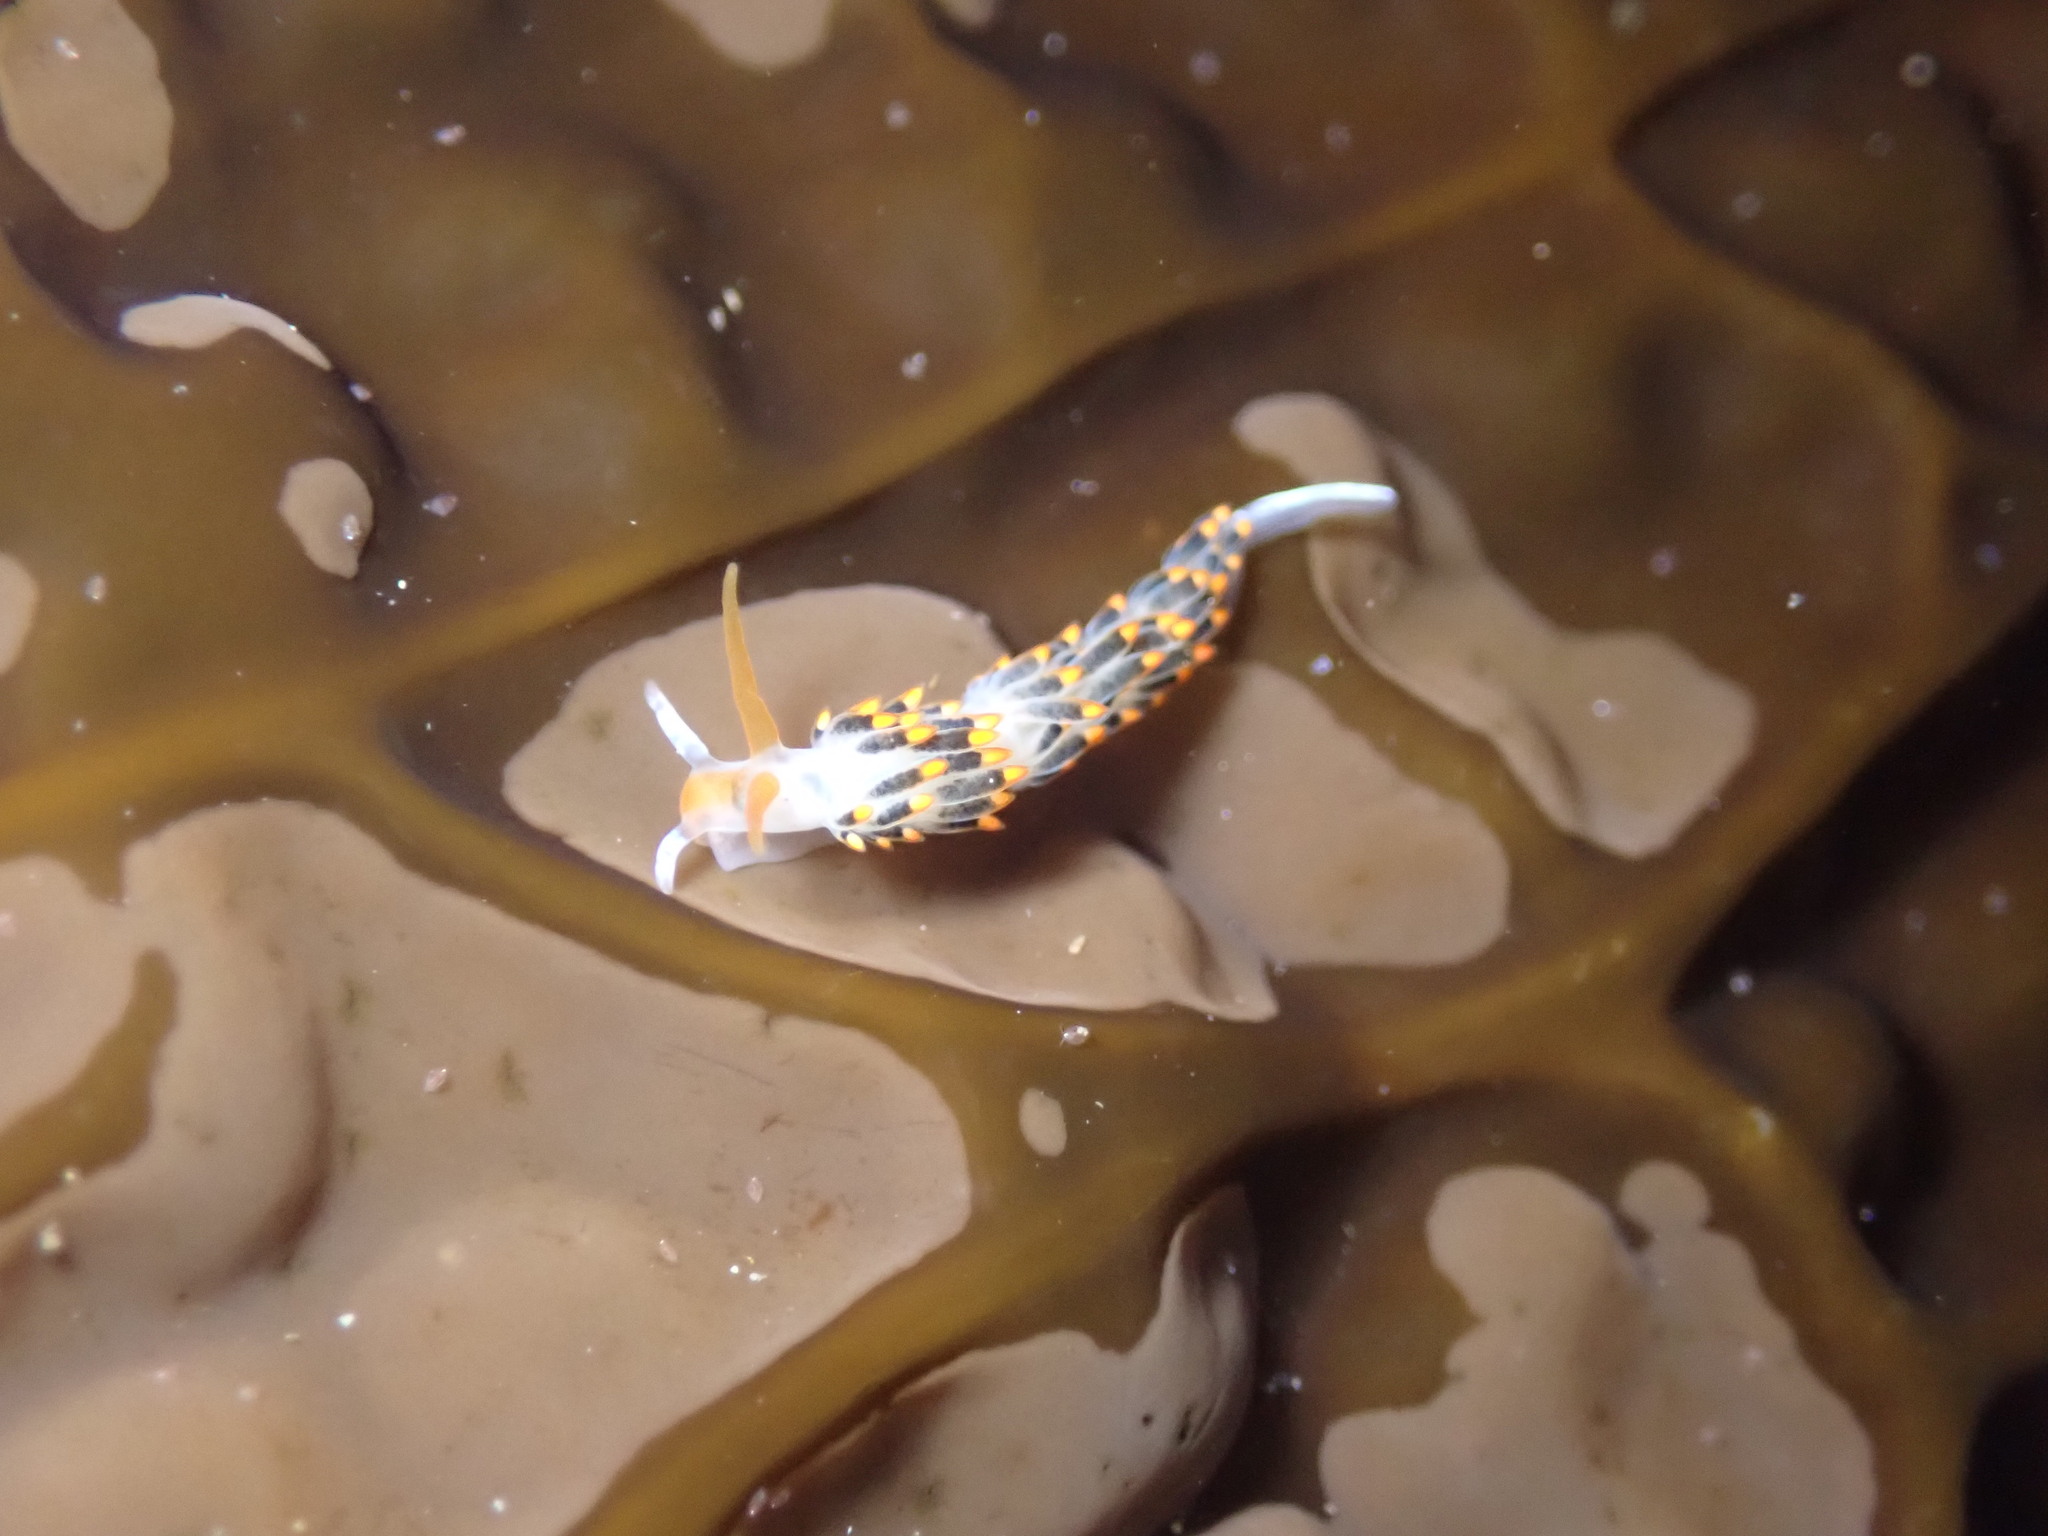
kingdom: Animalia
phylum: Mollusca
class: Gastropoda
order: Nudibranchia
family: Trinchesiidae
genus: Diaphoreolis
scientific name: Diaphoreolis lagunae
